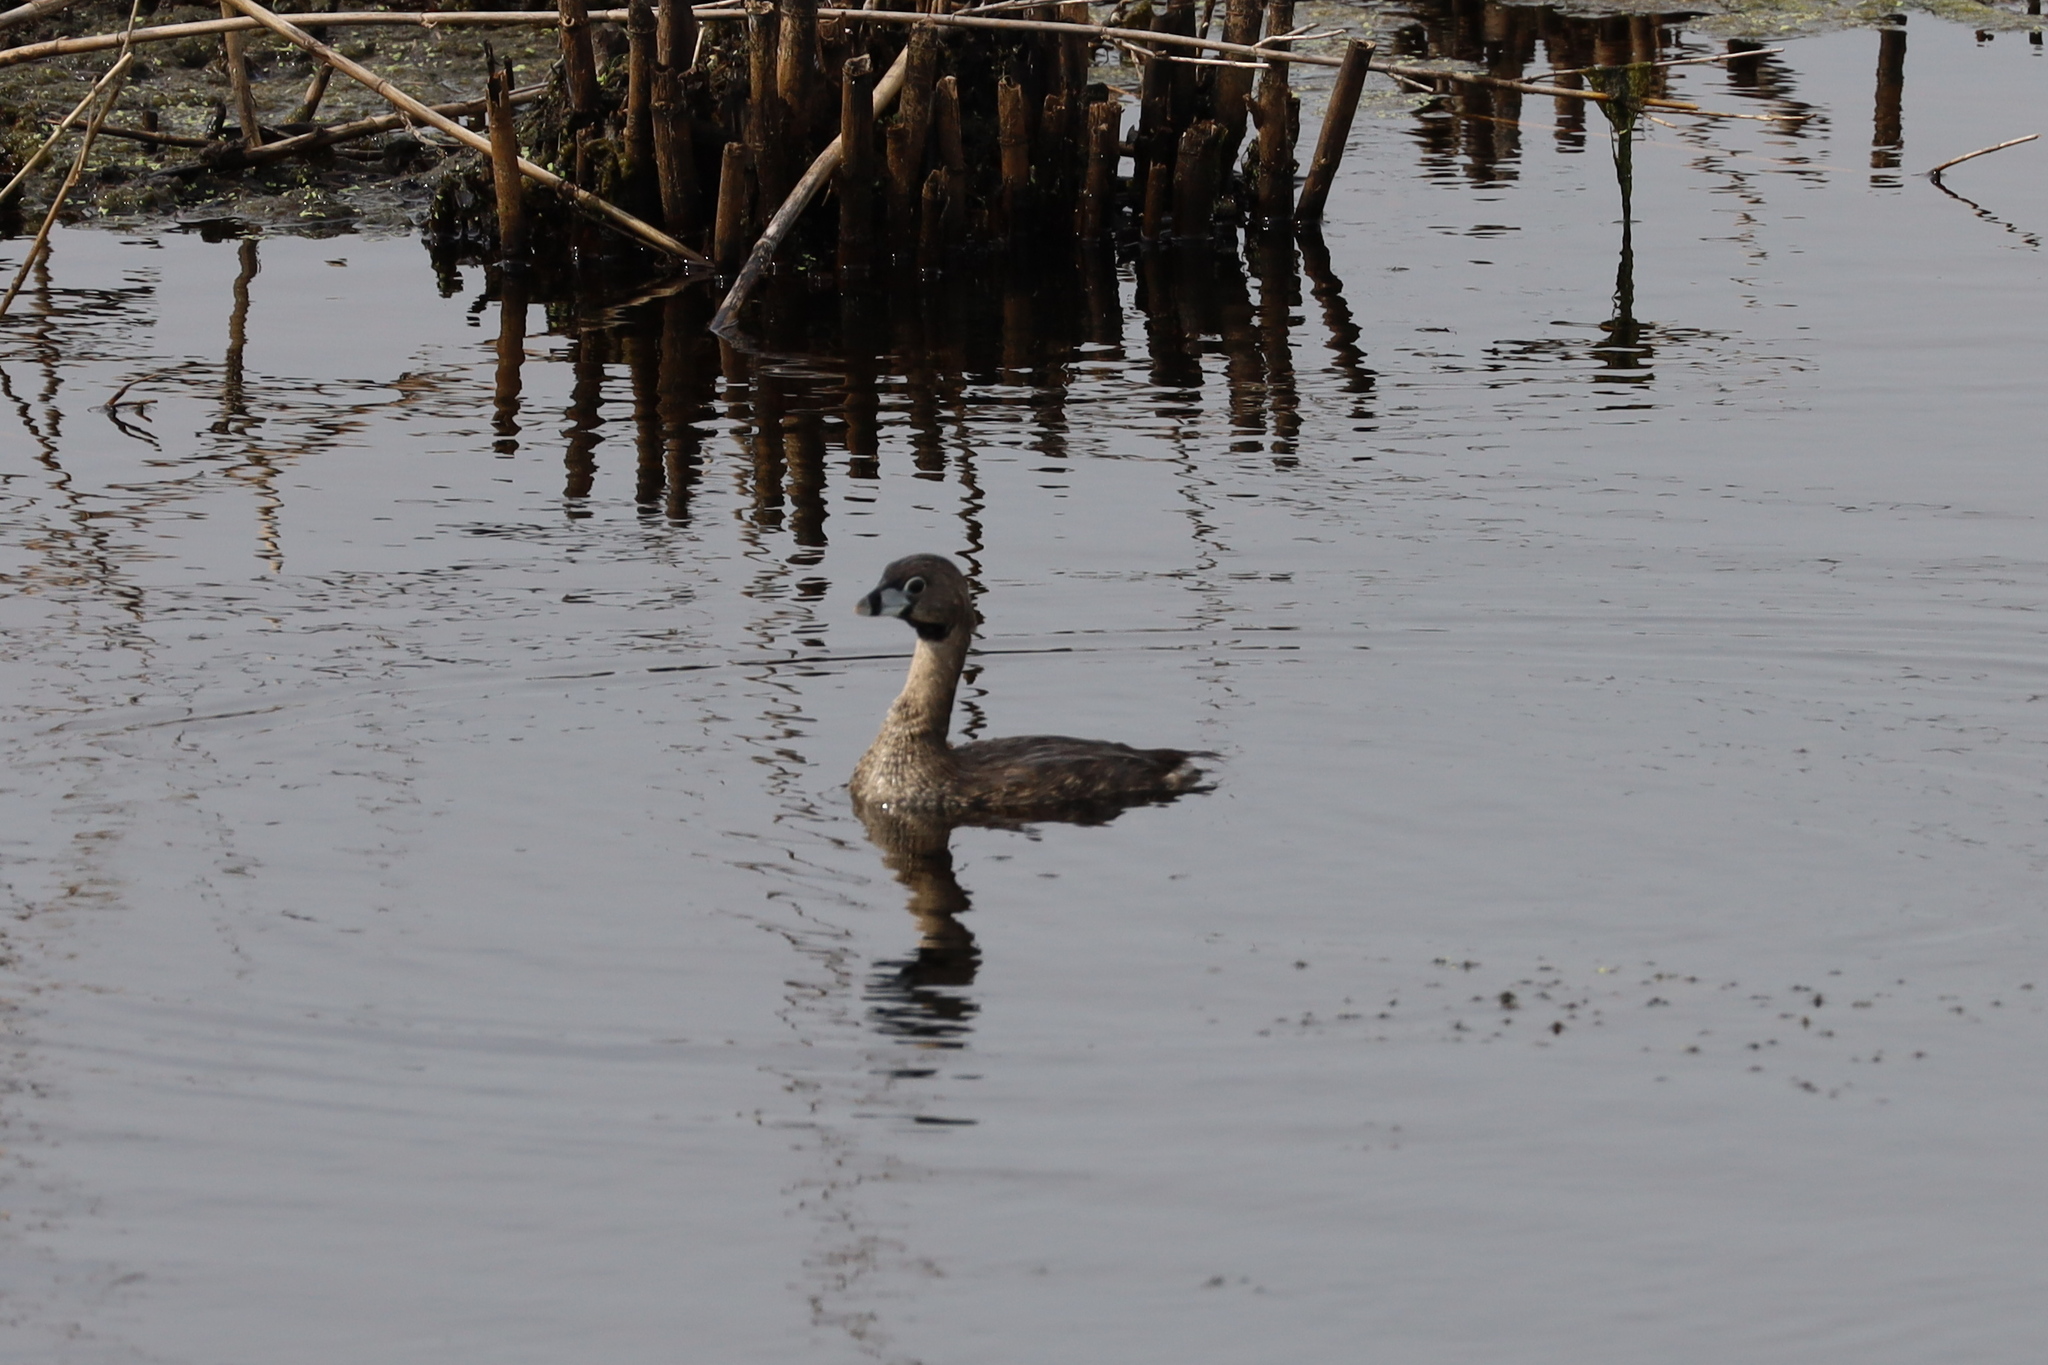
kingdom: Animalia
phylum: Chordata
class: Aves
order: Podicipediformes
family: Podicipedidae
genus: Podilymbus
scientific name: Podilymbus podiceps
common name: Pied-billed grebe
